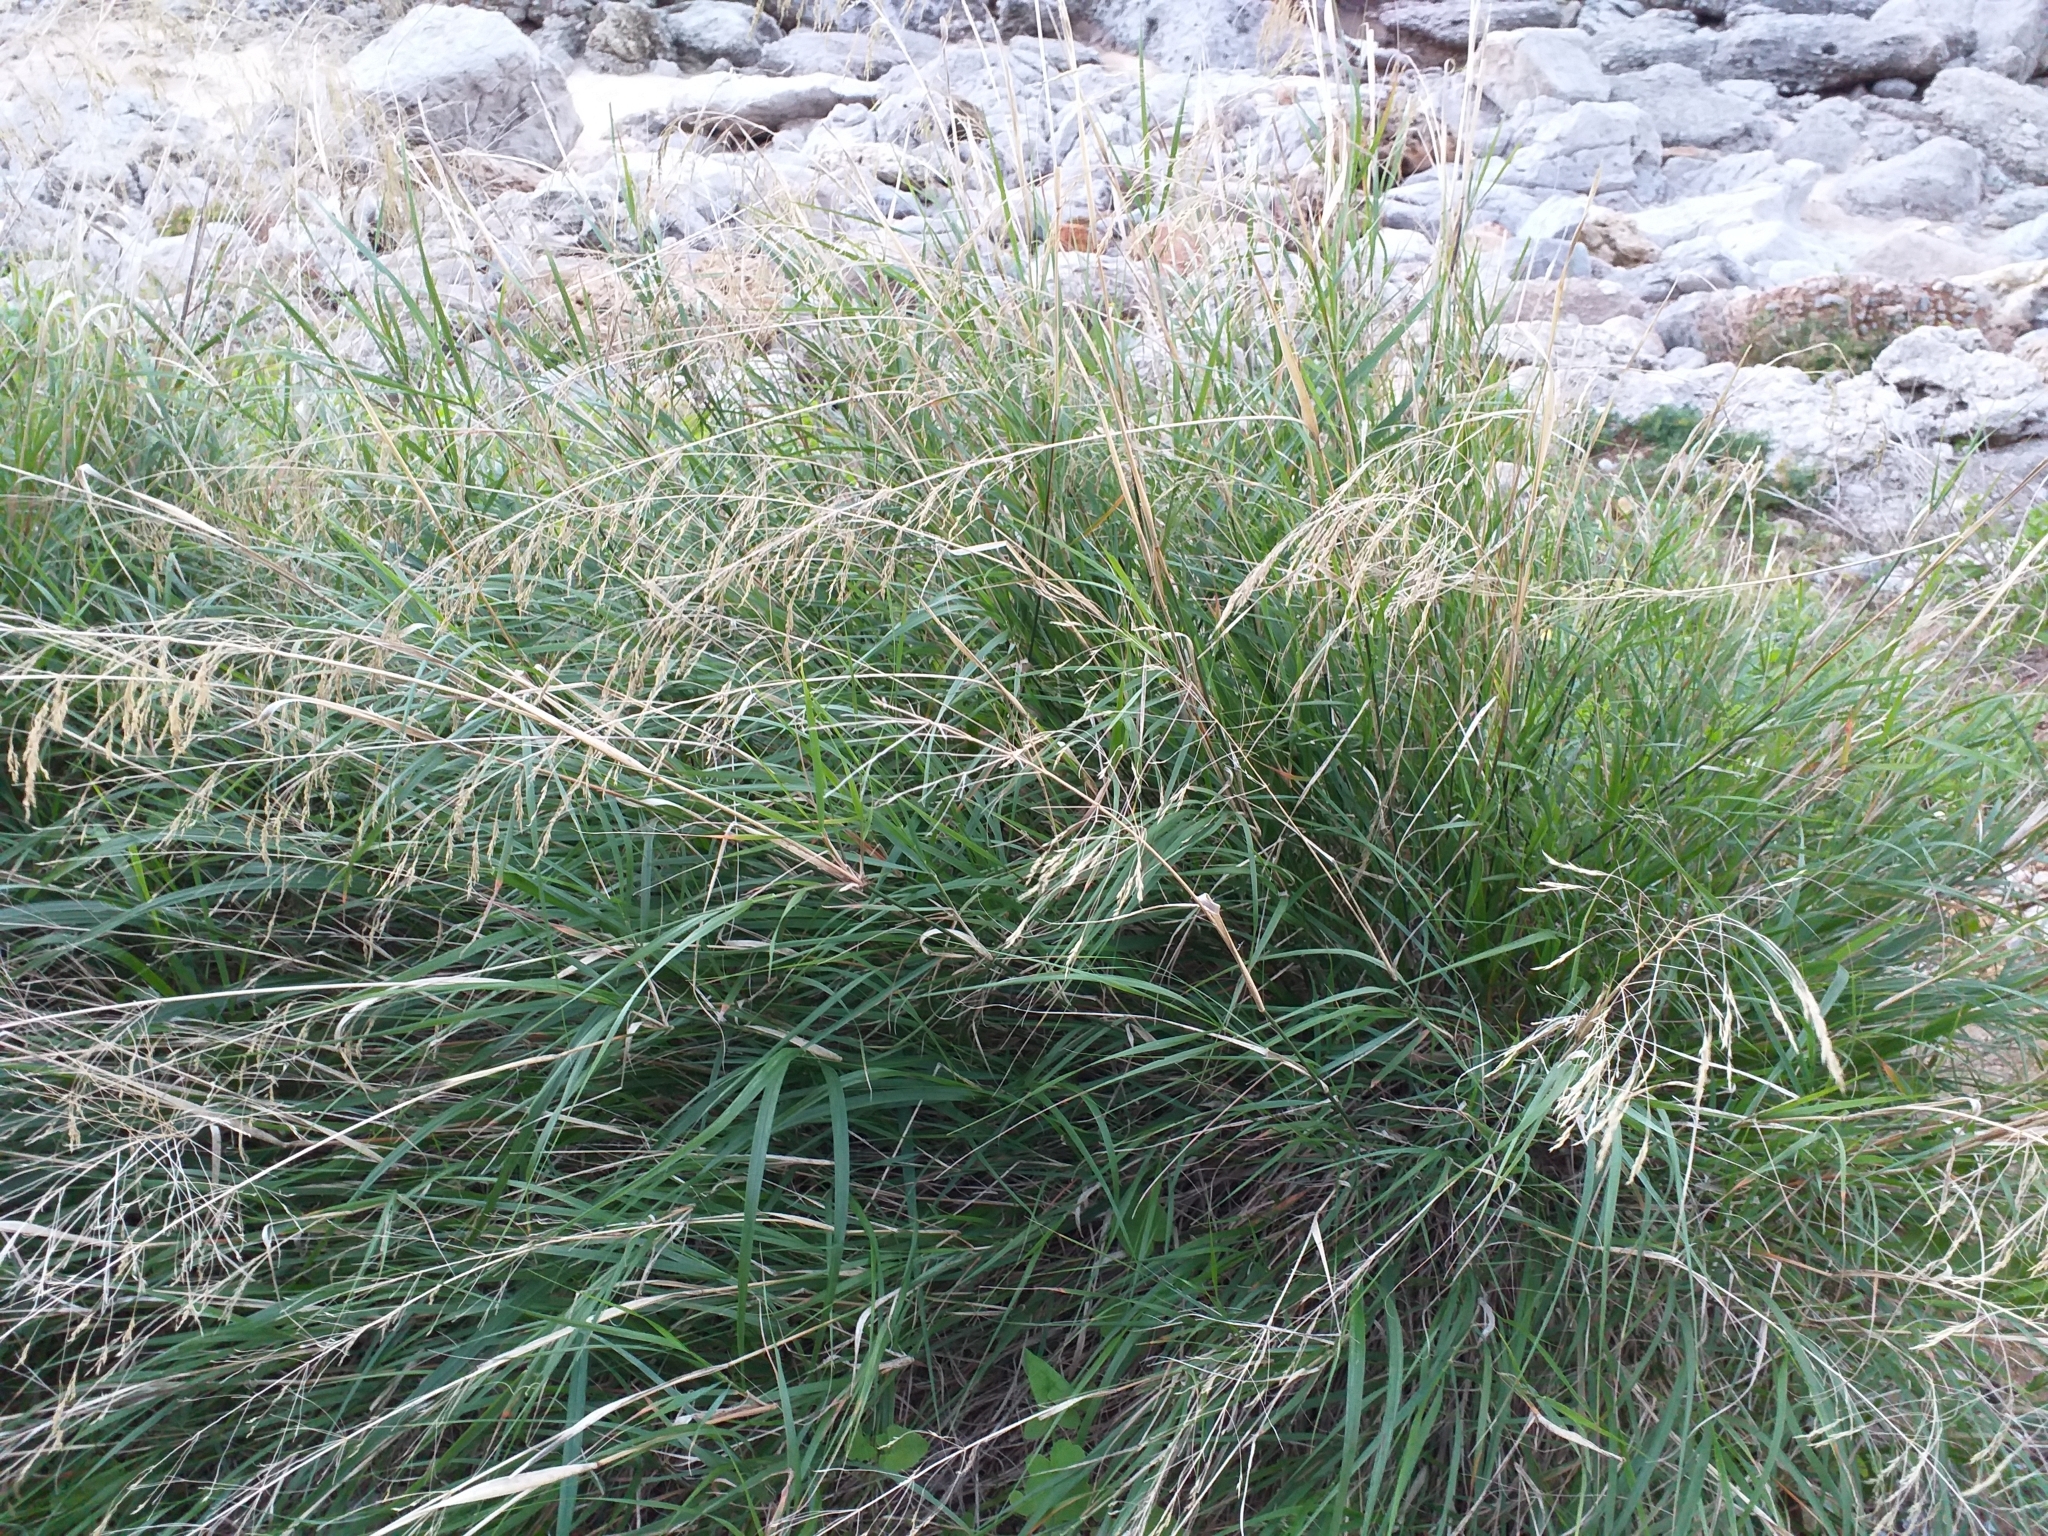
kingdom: Plantae
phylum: Tracheophyta
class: Liliopsida
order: Poales
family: Poaceae
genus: Oloptum
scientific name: Oloptum miliaceum
